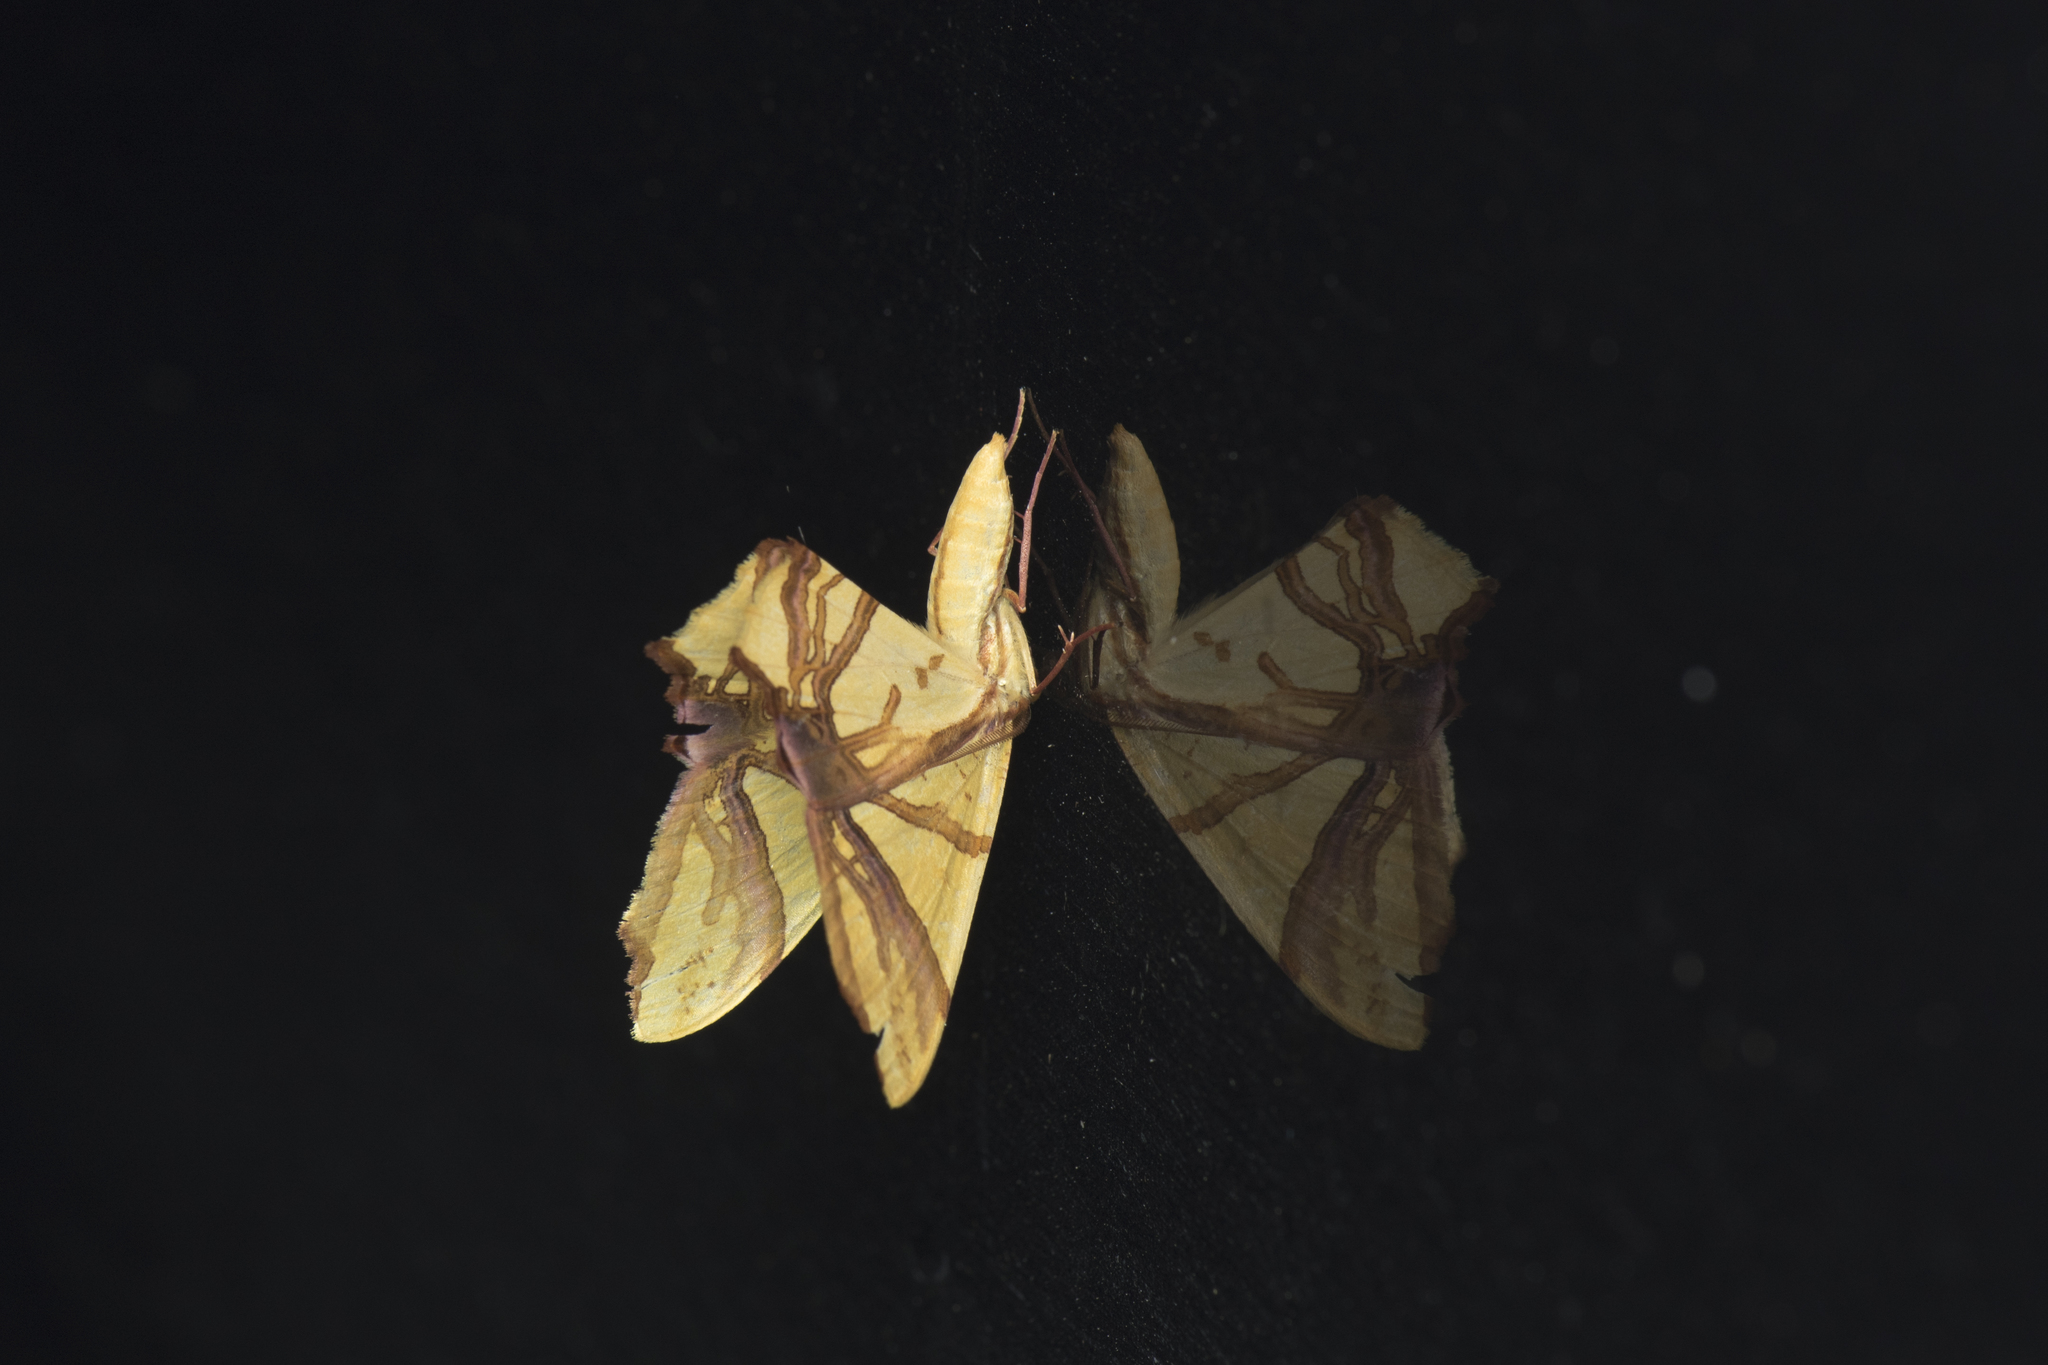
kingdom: Animalia
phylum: Arthropoda
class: Insecta
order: Lepidoptera
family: Geometridae
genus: Trotocraspeda
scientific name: Trotocraspeda divaricata
